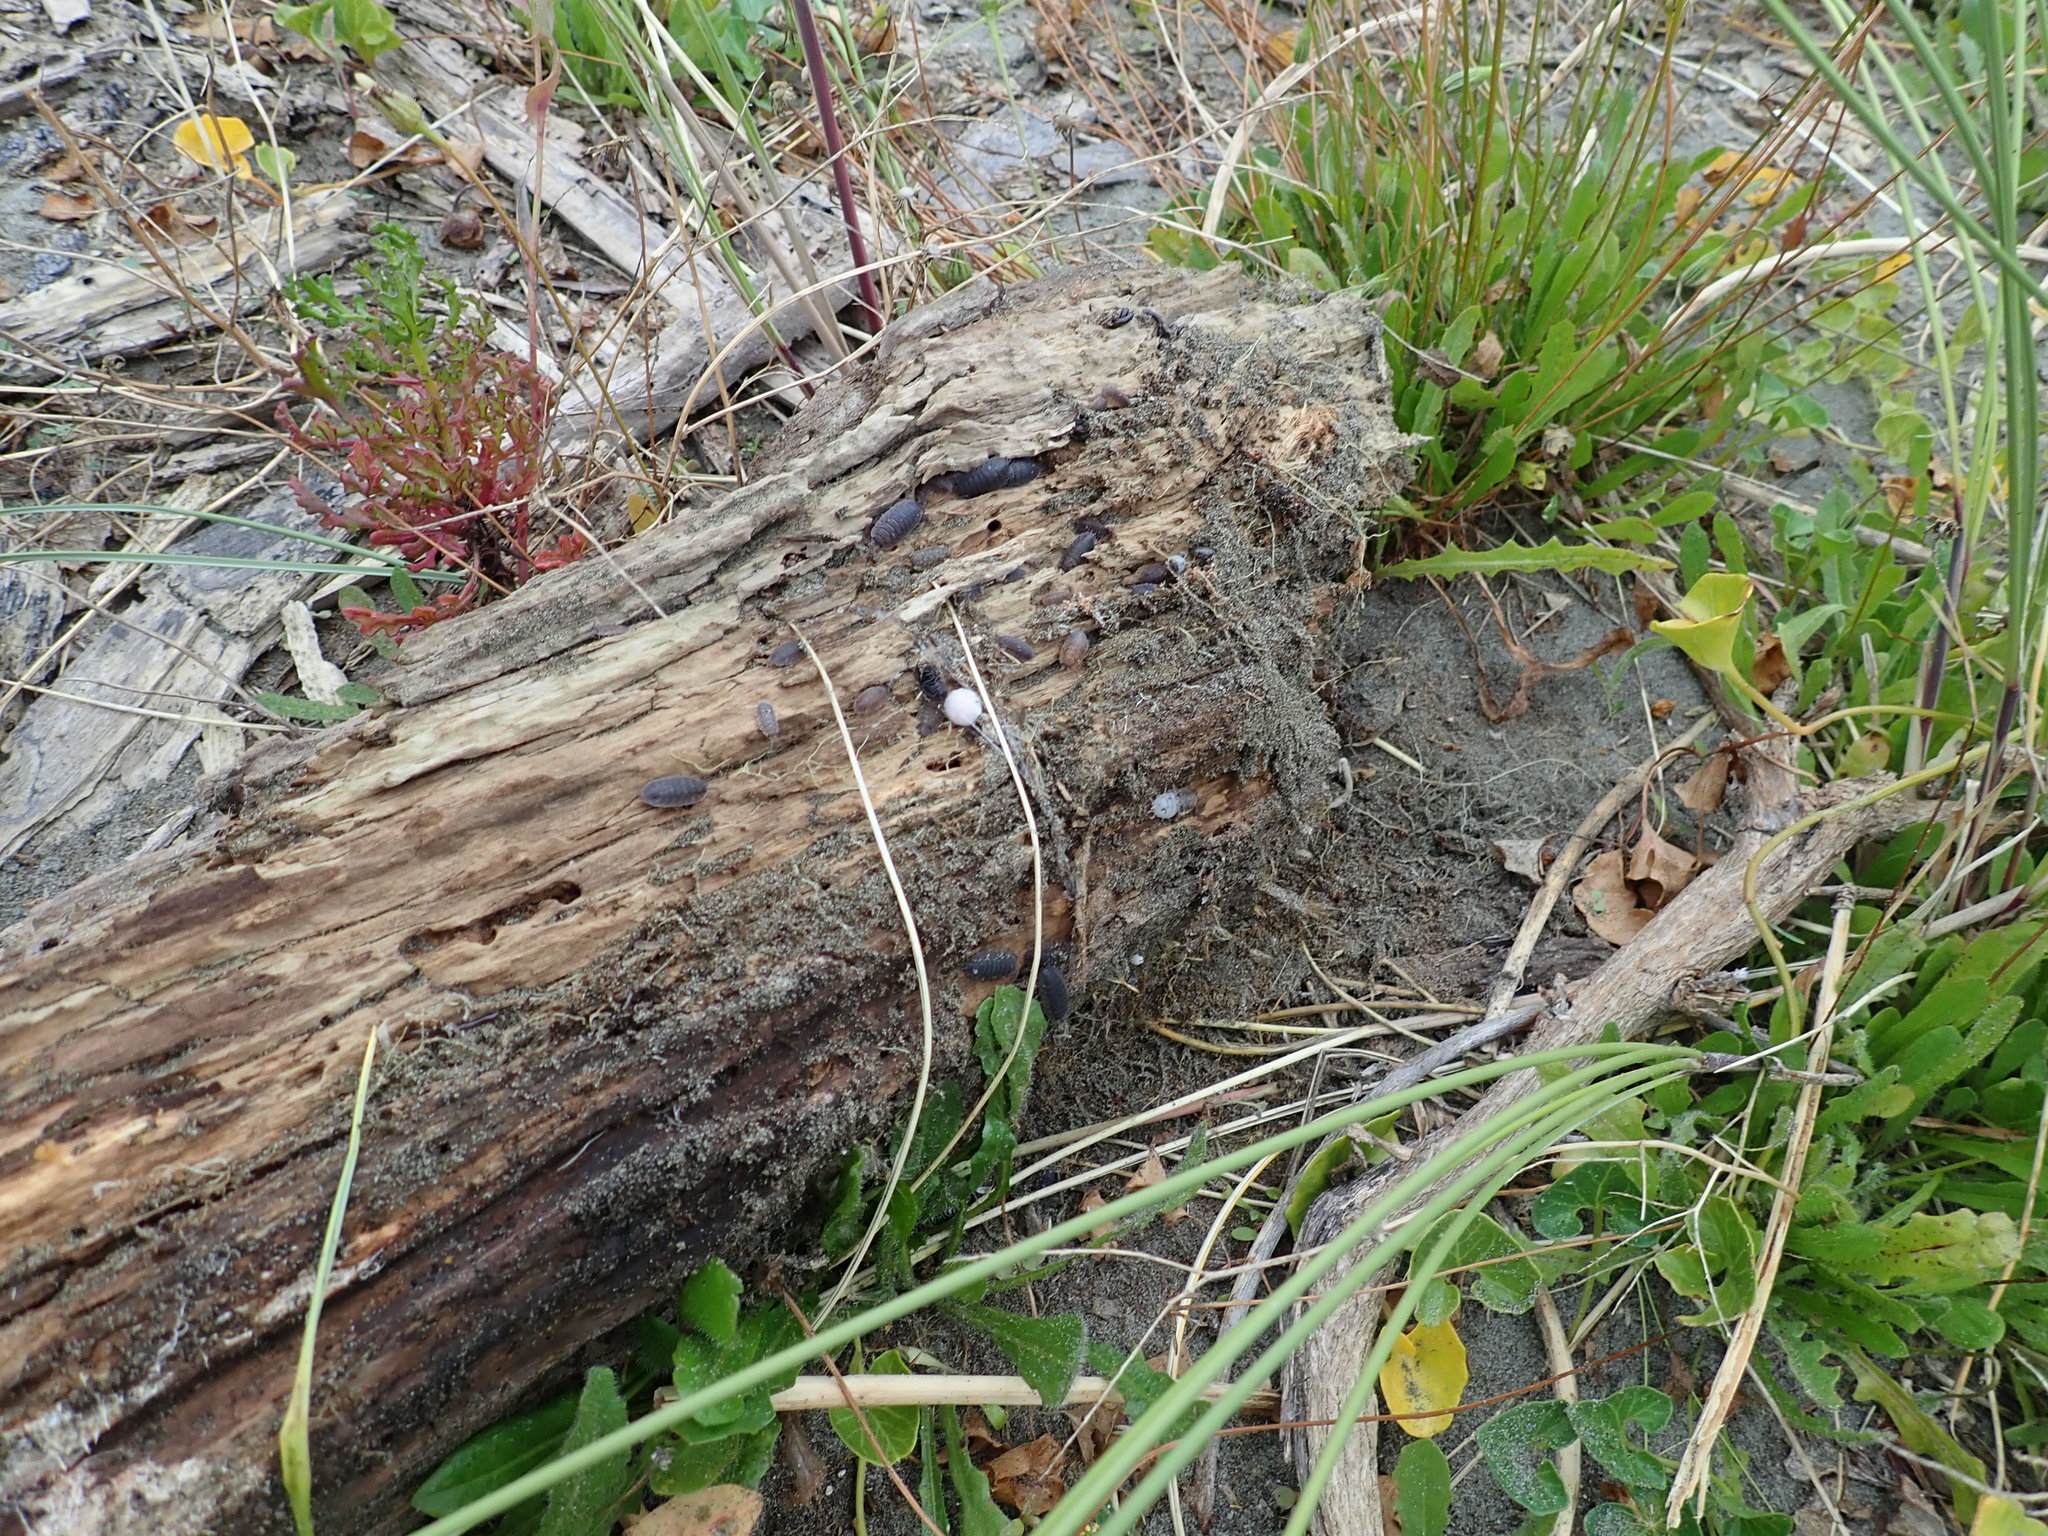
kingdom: Animalia
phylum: Arthropoda
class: Arachnida
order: Araneae
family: Theridiidae
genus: Steatoda
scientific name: Steatoda capensis
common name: Cobweb weaver
